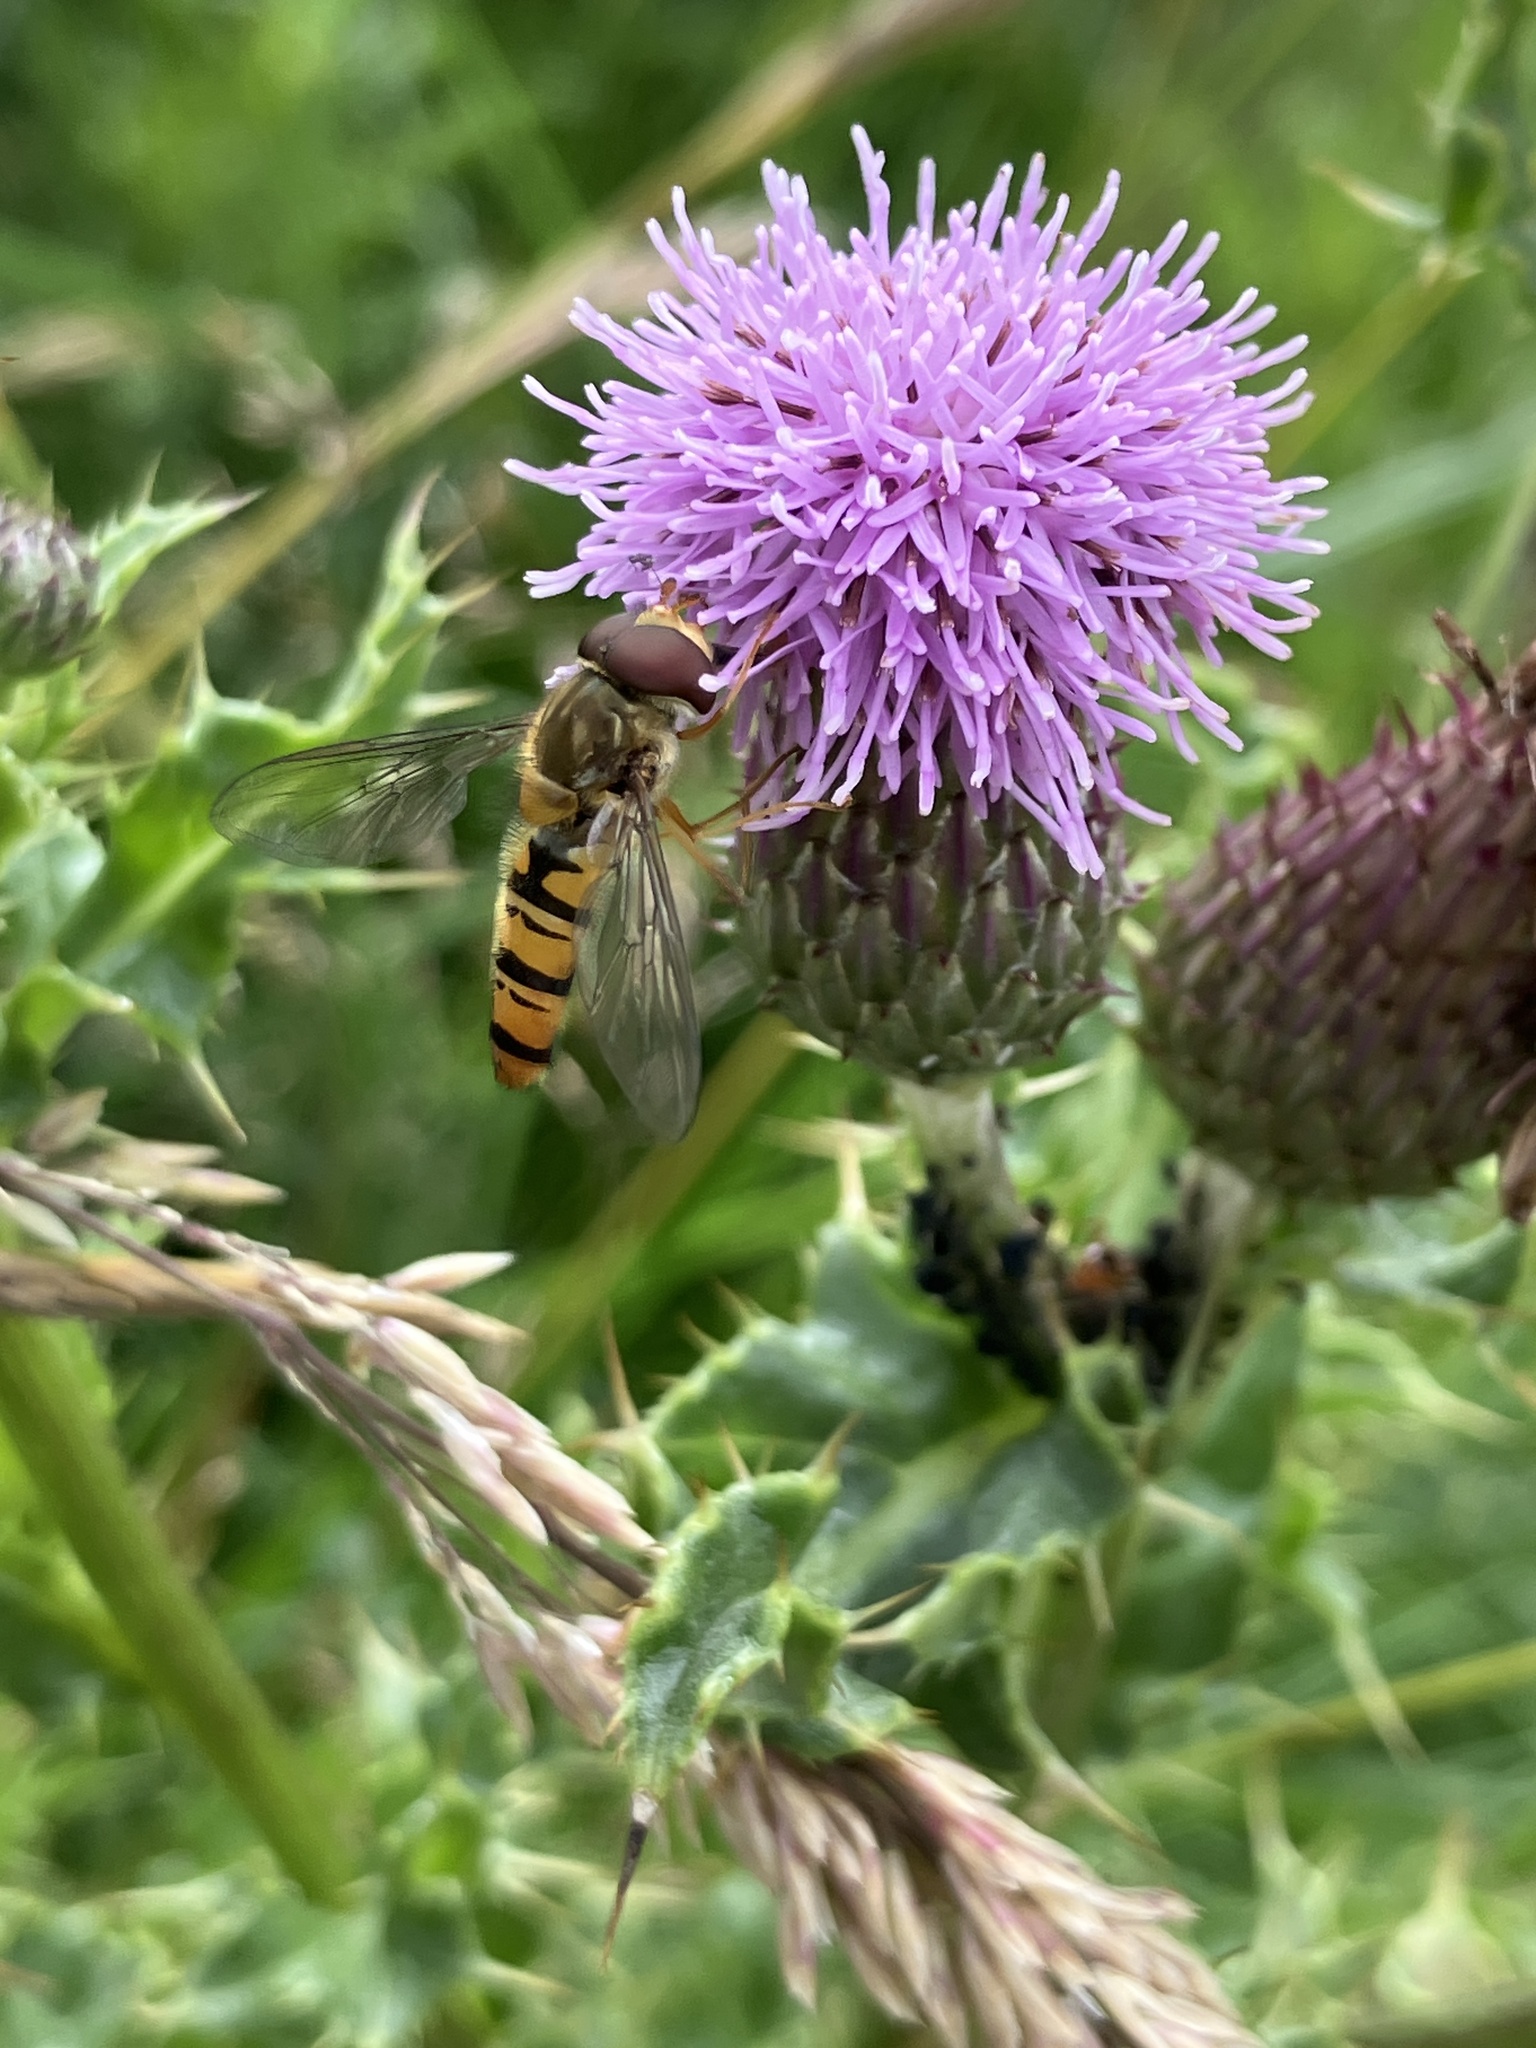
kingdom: Animalia
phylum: Arthropoda
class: Insecta
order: Diptera
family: Syrphidae
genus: Episyrphus
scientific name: Episyrphus balteatus
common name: Marmalade hoverfly
